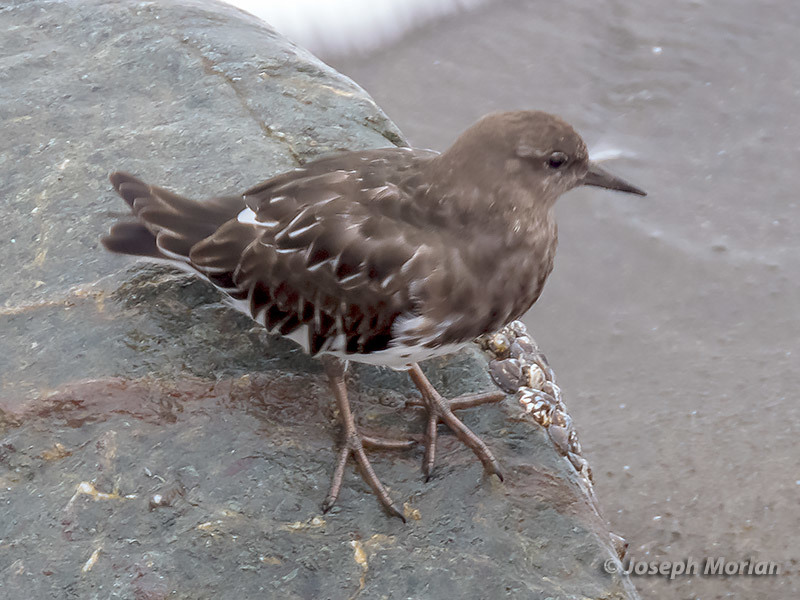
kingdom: Animalia
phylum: Chordata
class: Aves
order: Charadriiformes
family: Scolopacidae
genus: Arenaria
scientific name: Arenaria melanocephala
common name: Black turnstone
